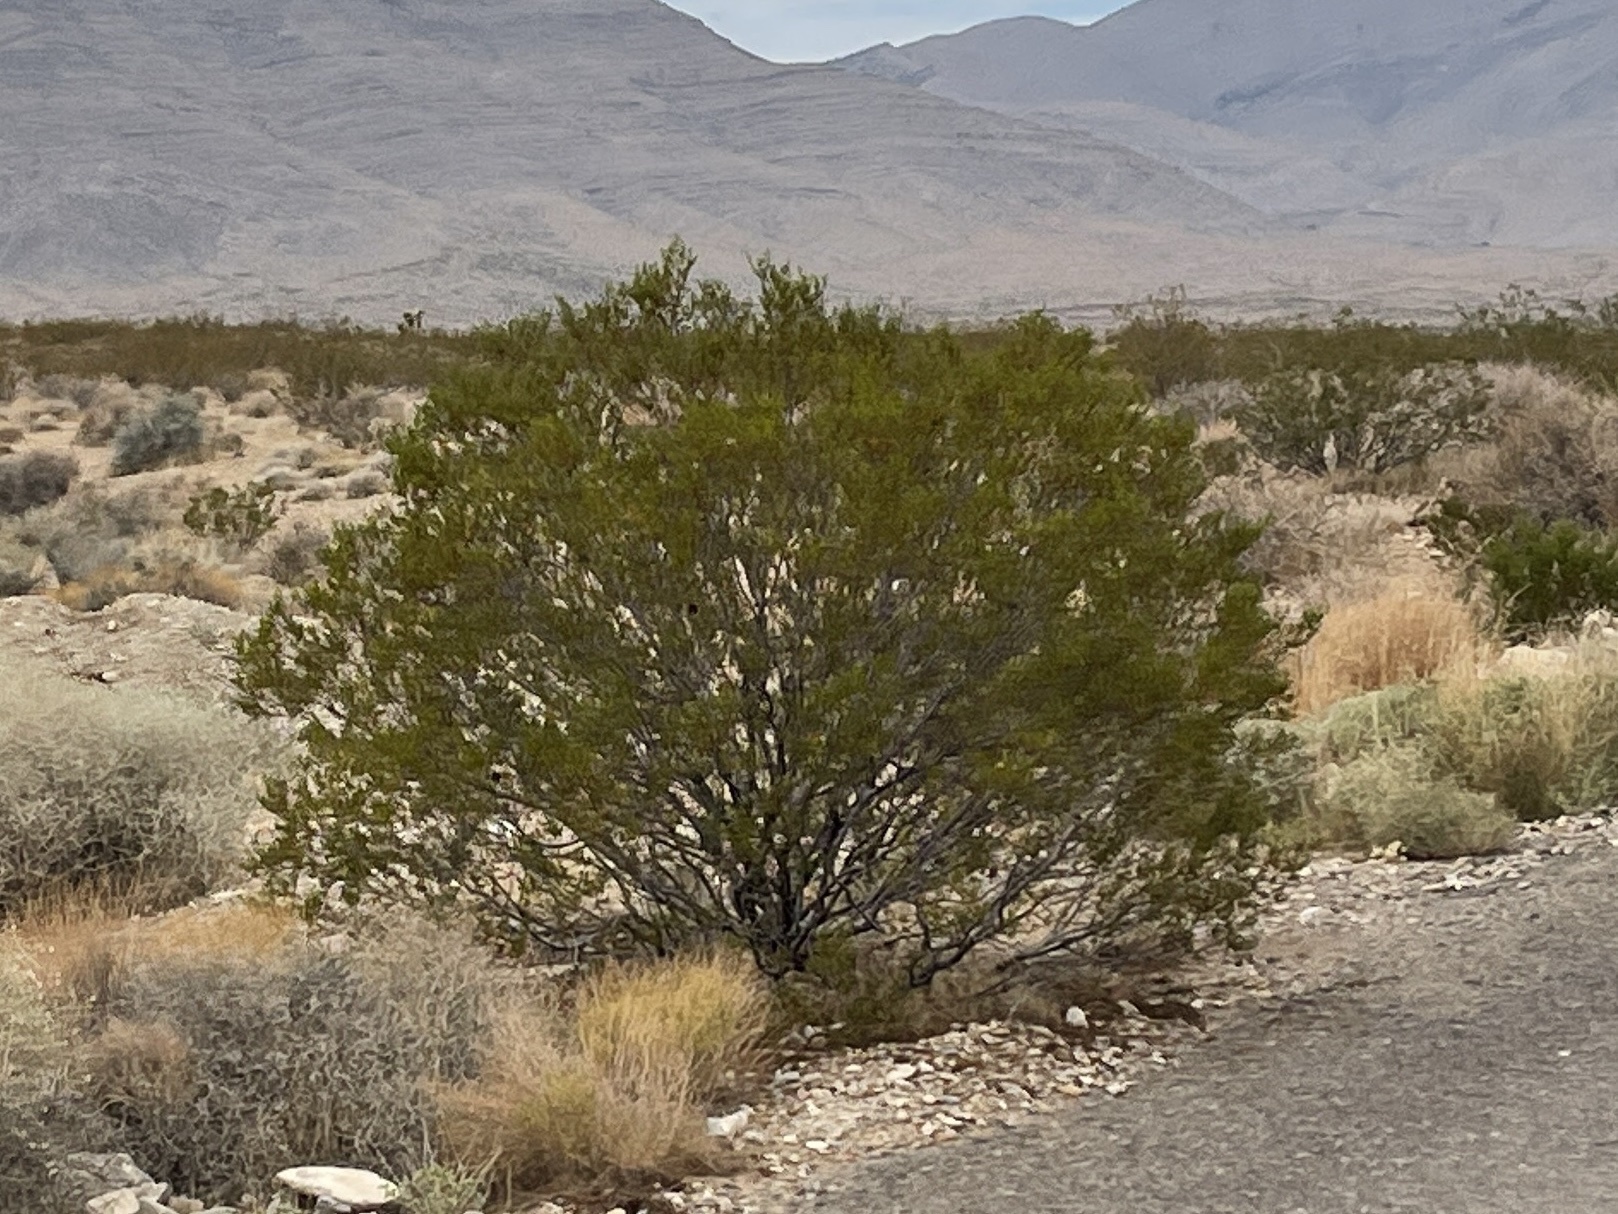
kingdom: Plantae
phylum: Tracheophyta
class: Magnoliopsida
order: Zygophyllales
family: Zygophyllaceae
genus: Larrea
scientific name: Larrea tridentata
